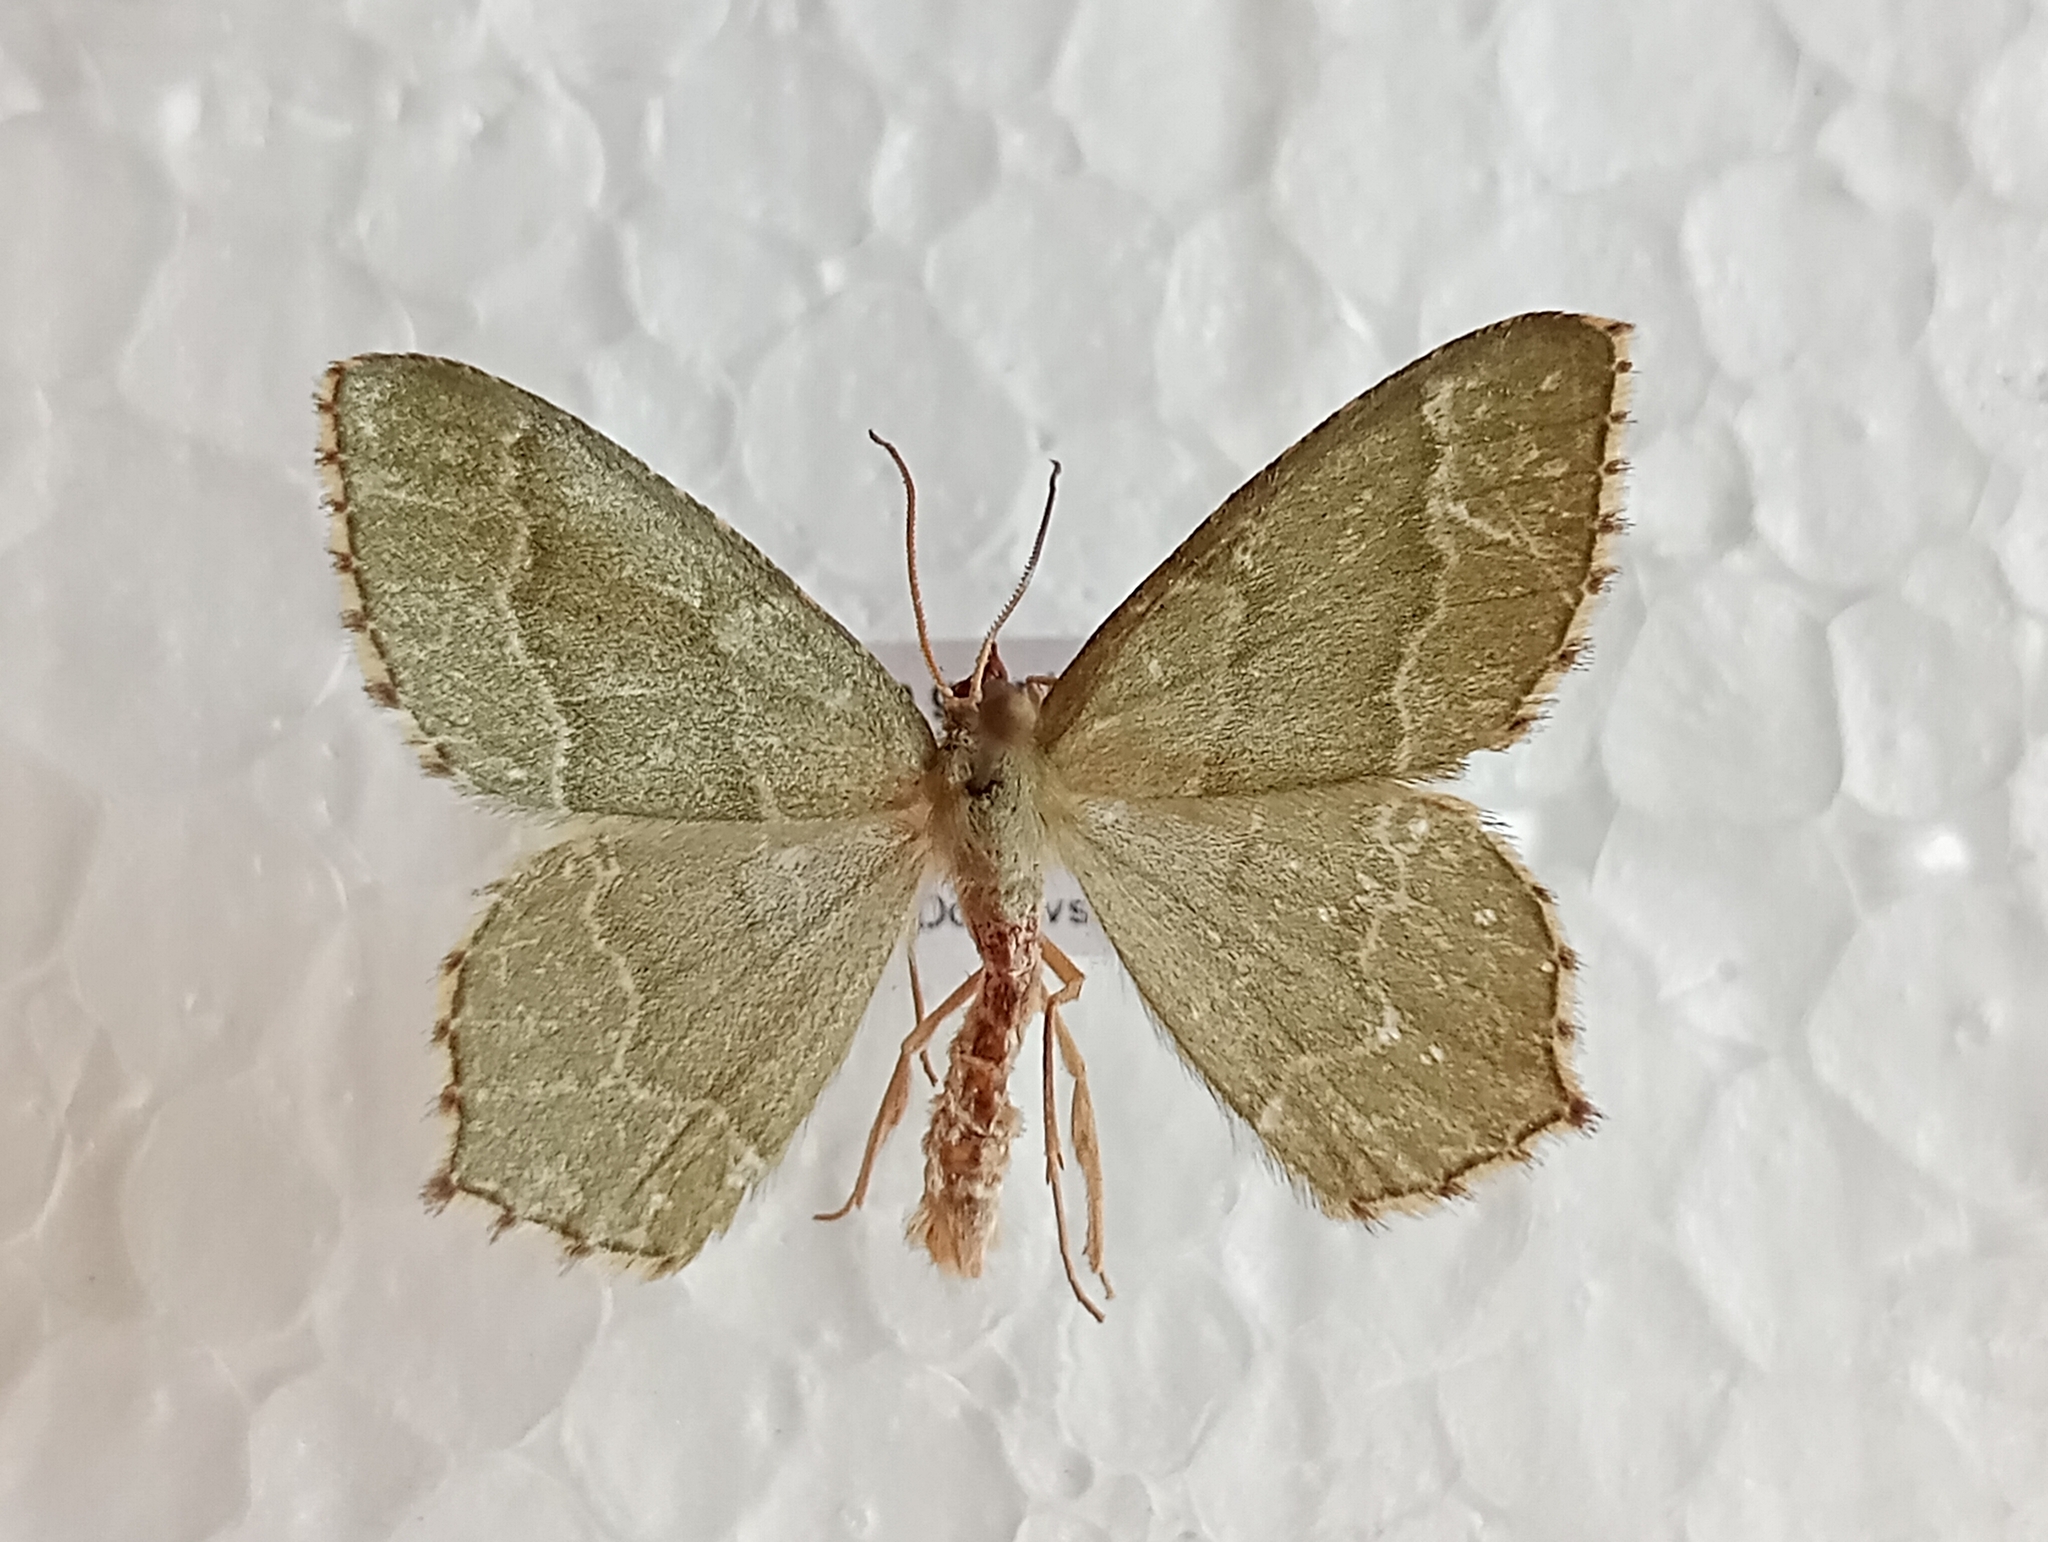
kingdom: Animalia
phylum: Arthropoda
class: Insecta
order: Lepidoptera
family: Geometridae
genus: Hemithea
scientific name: Hemithea aestivaria
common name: Common emerald
